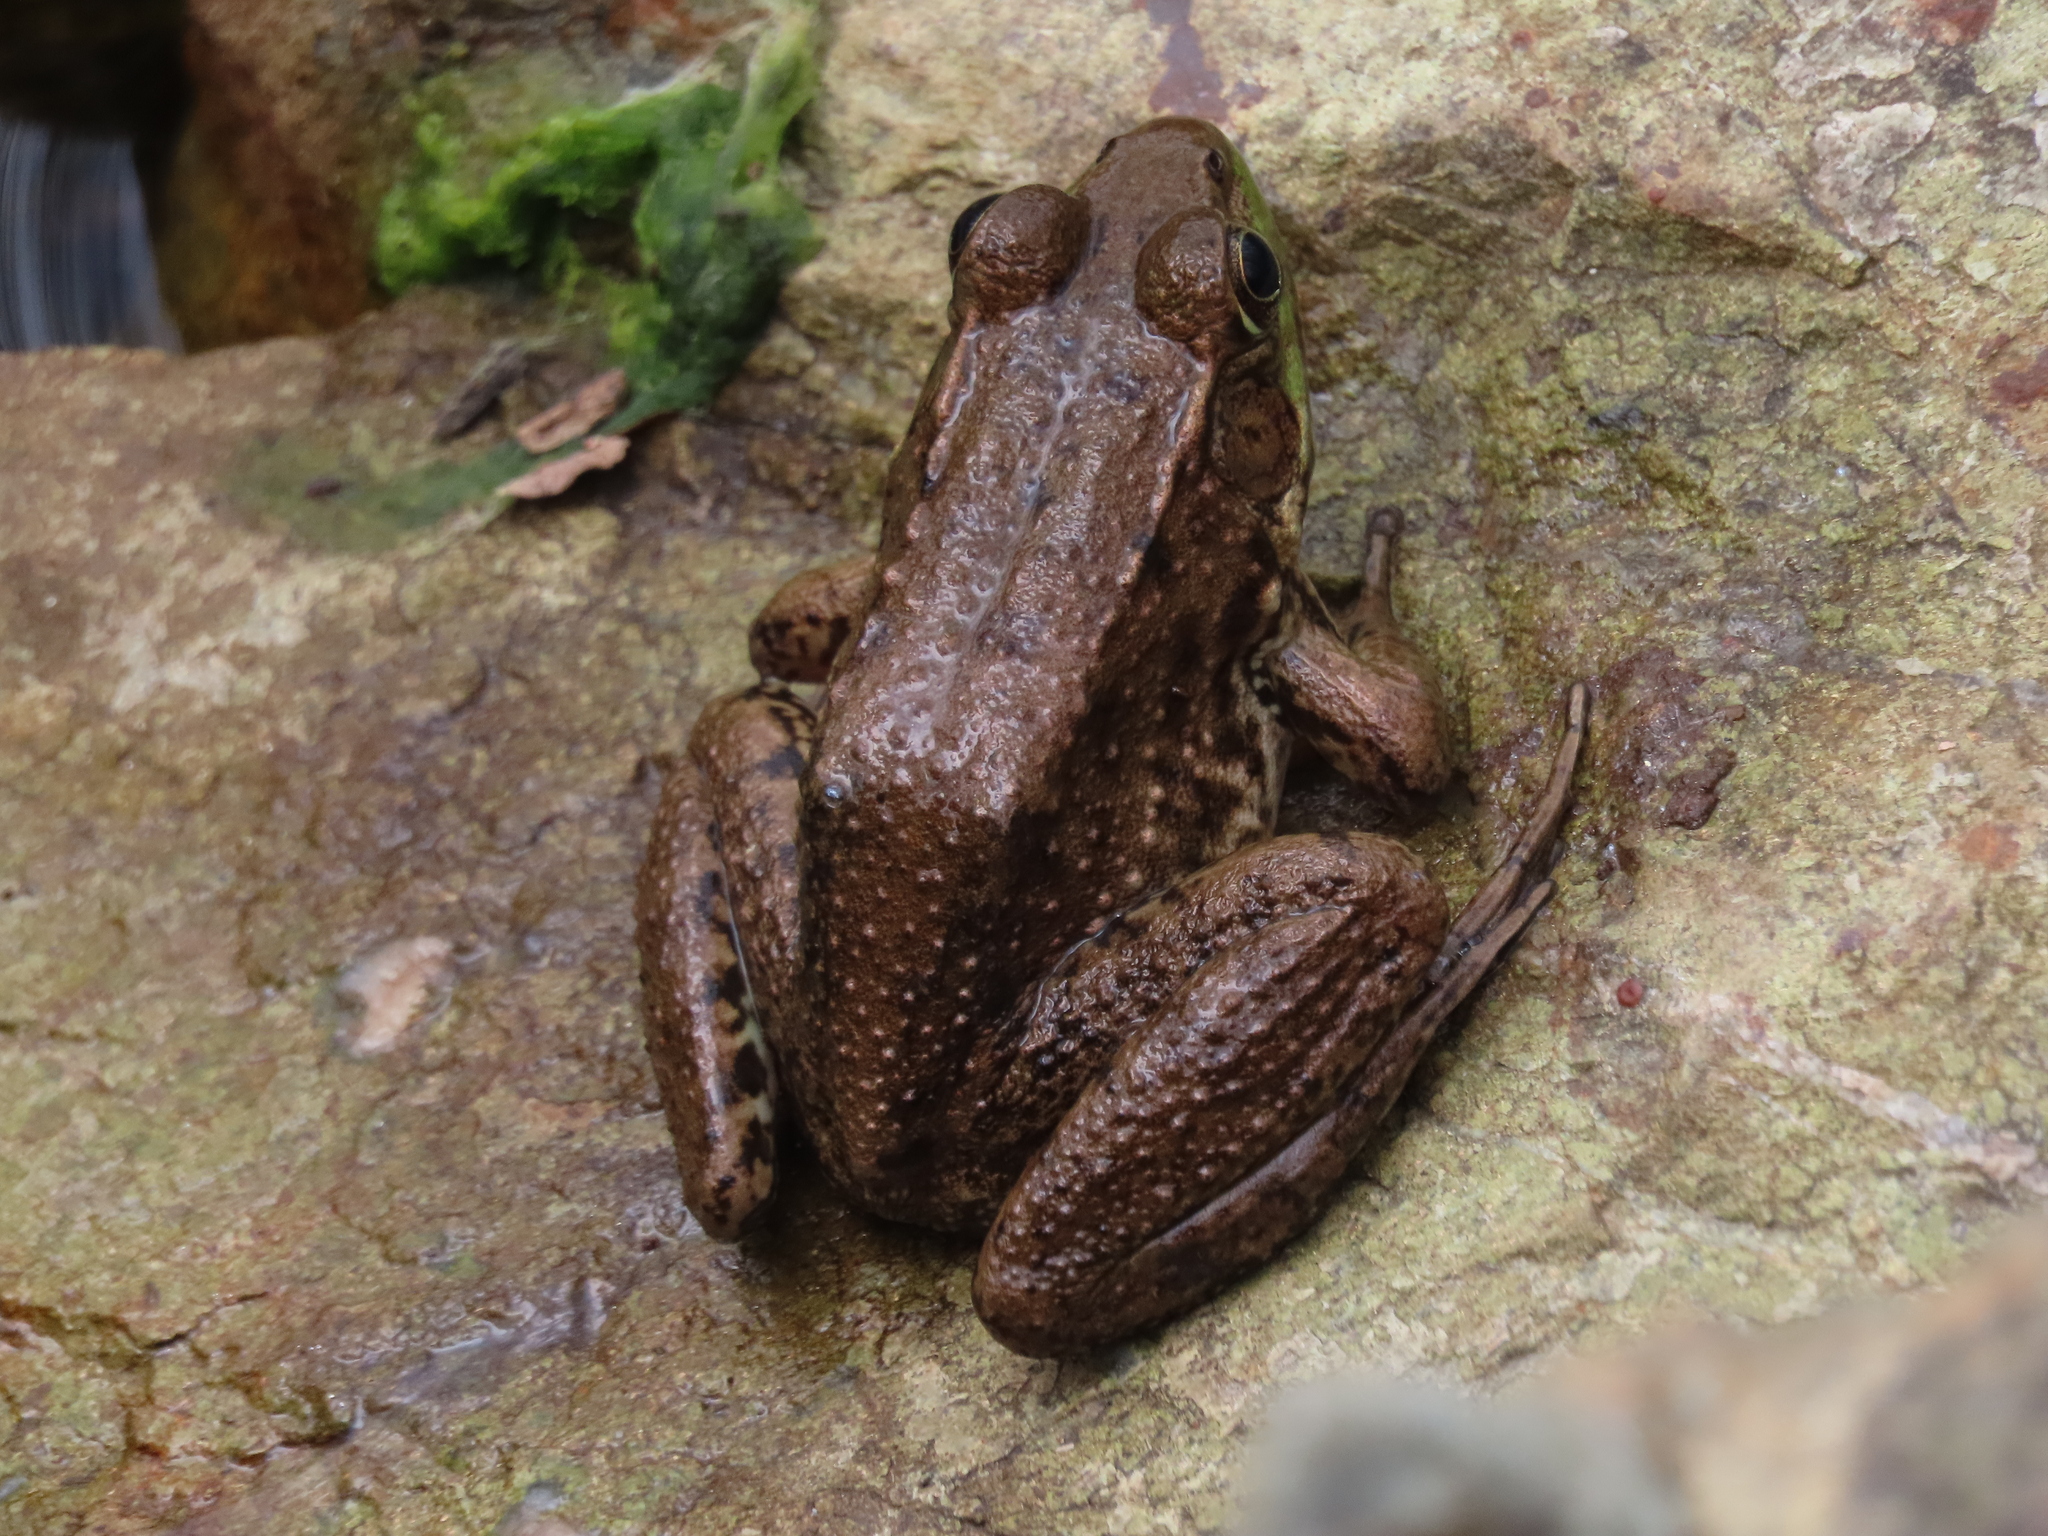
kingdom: Animalia
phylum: Chordata
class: Amphibia
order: Anura
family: Ranidae
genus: Lithobates
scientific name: Lithobates clamitans
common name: Green frog
